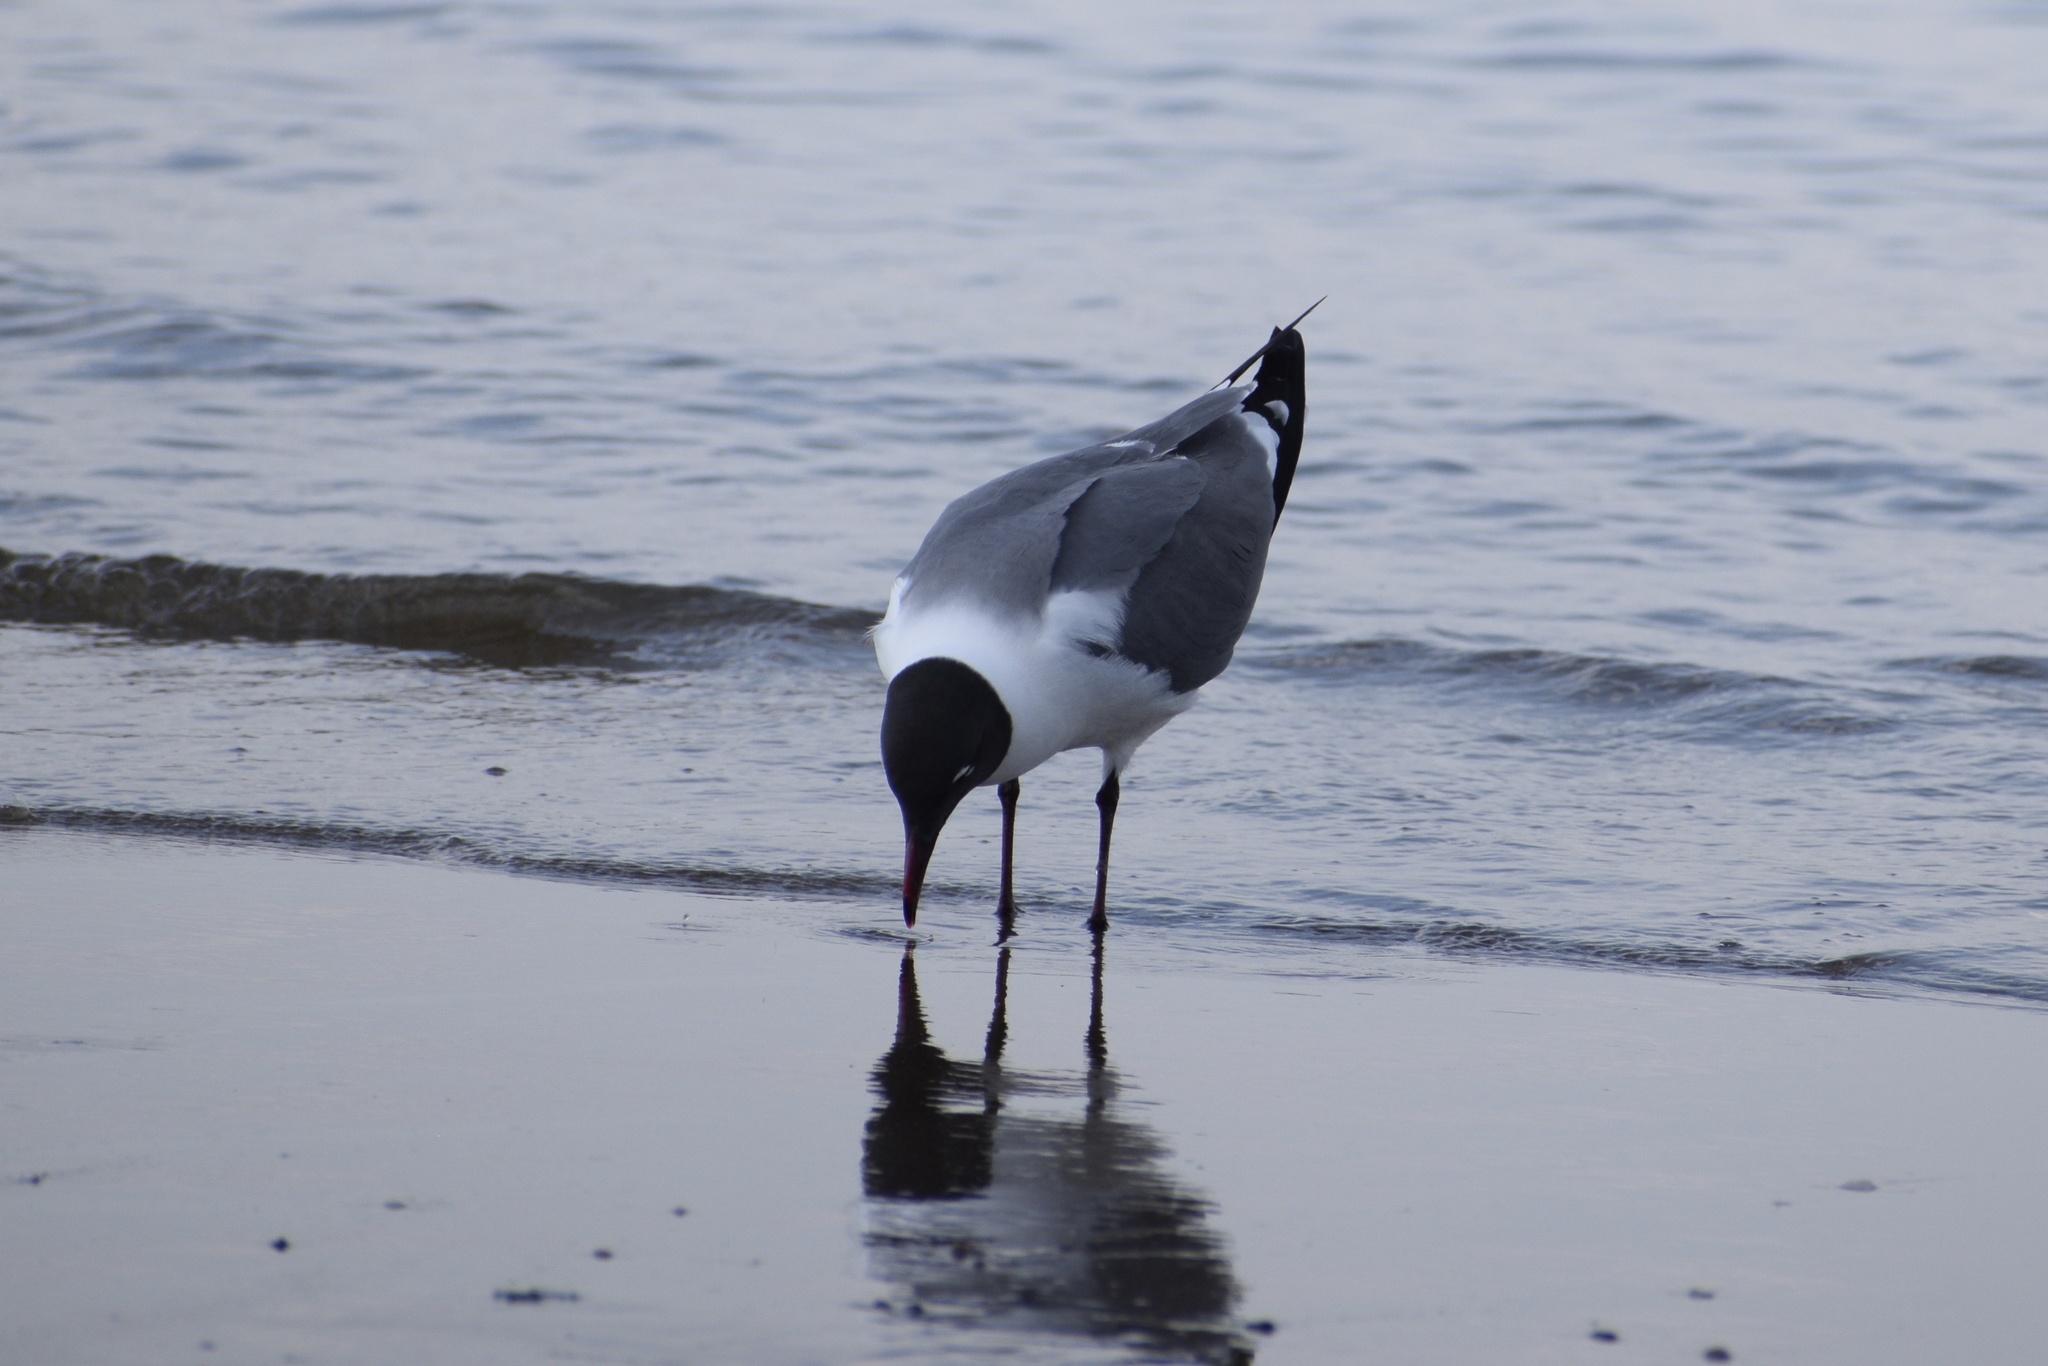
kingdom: Animalia
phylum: Chordata
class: Aves
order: Charadriiformes
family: Laridae
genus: Leucophaeus
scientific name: Leucophaeus atricilla
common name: Laughing gull
